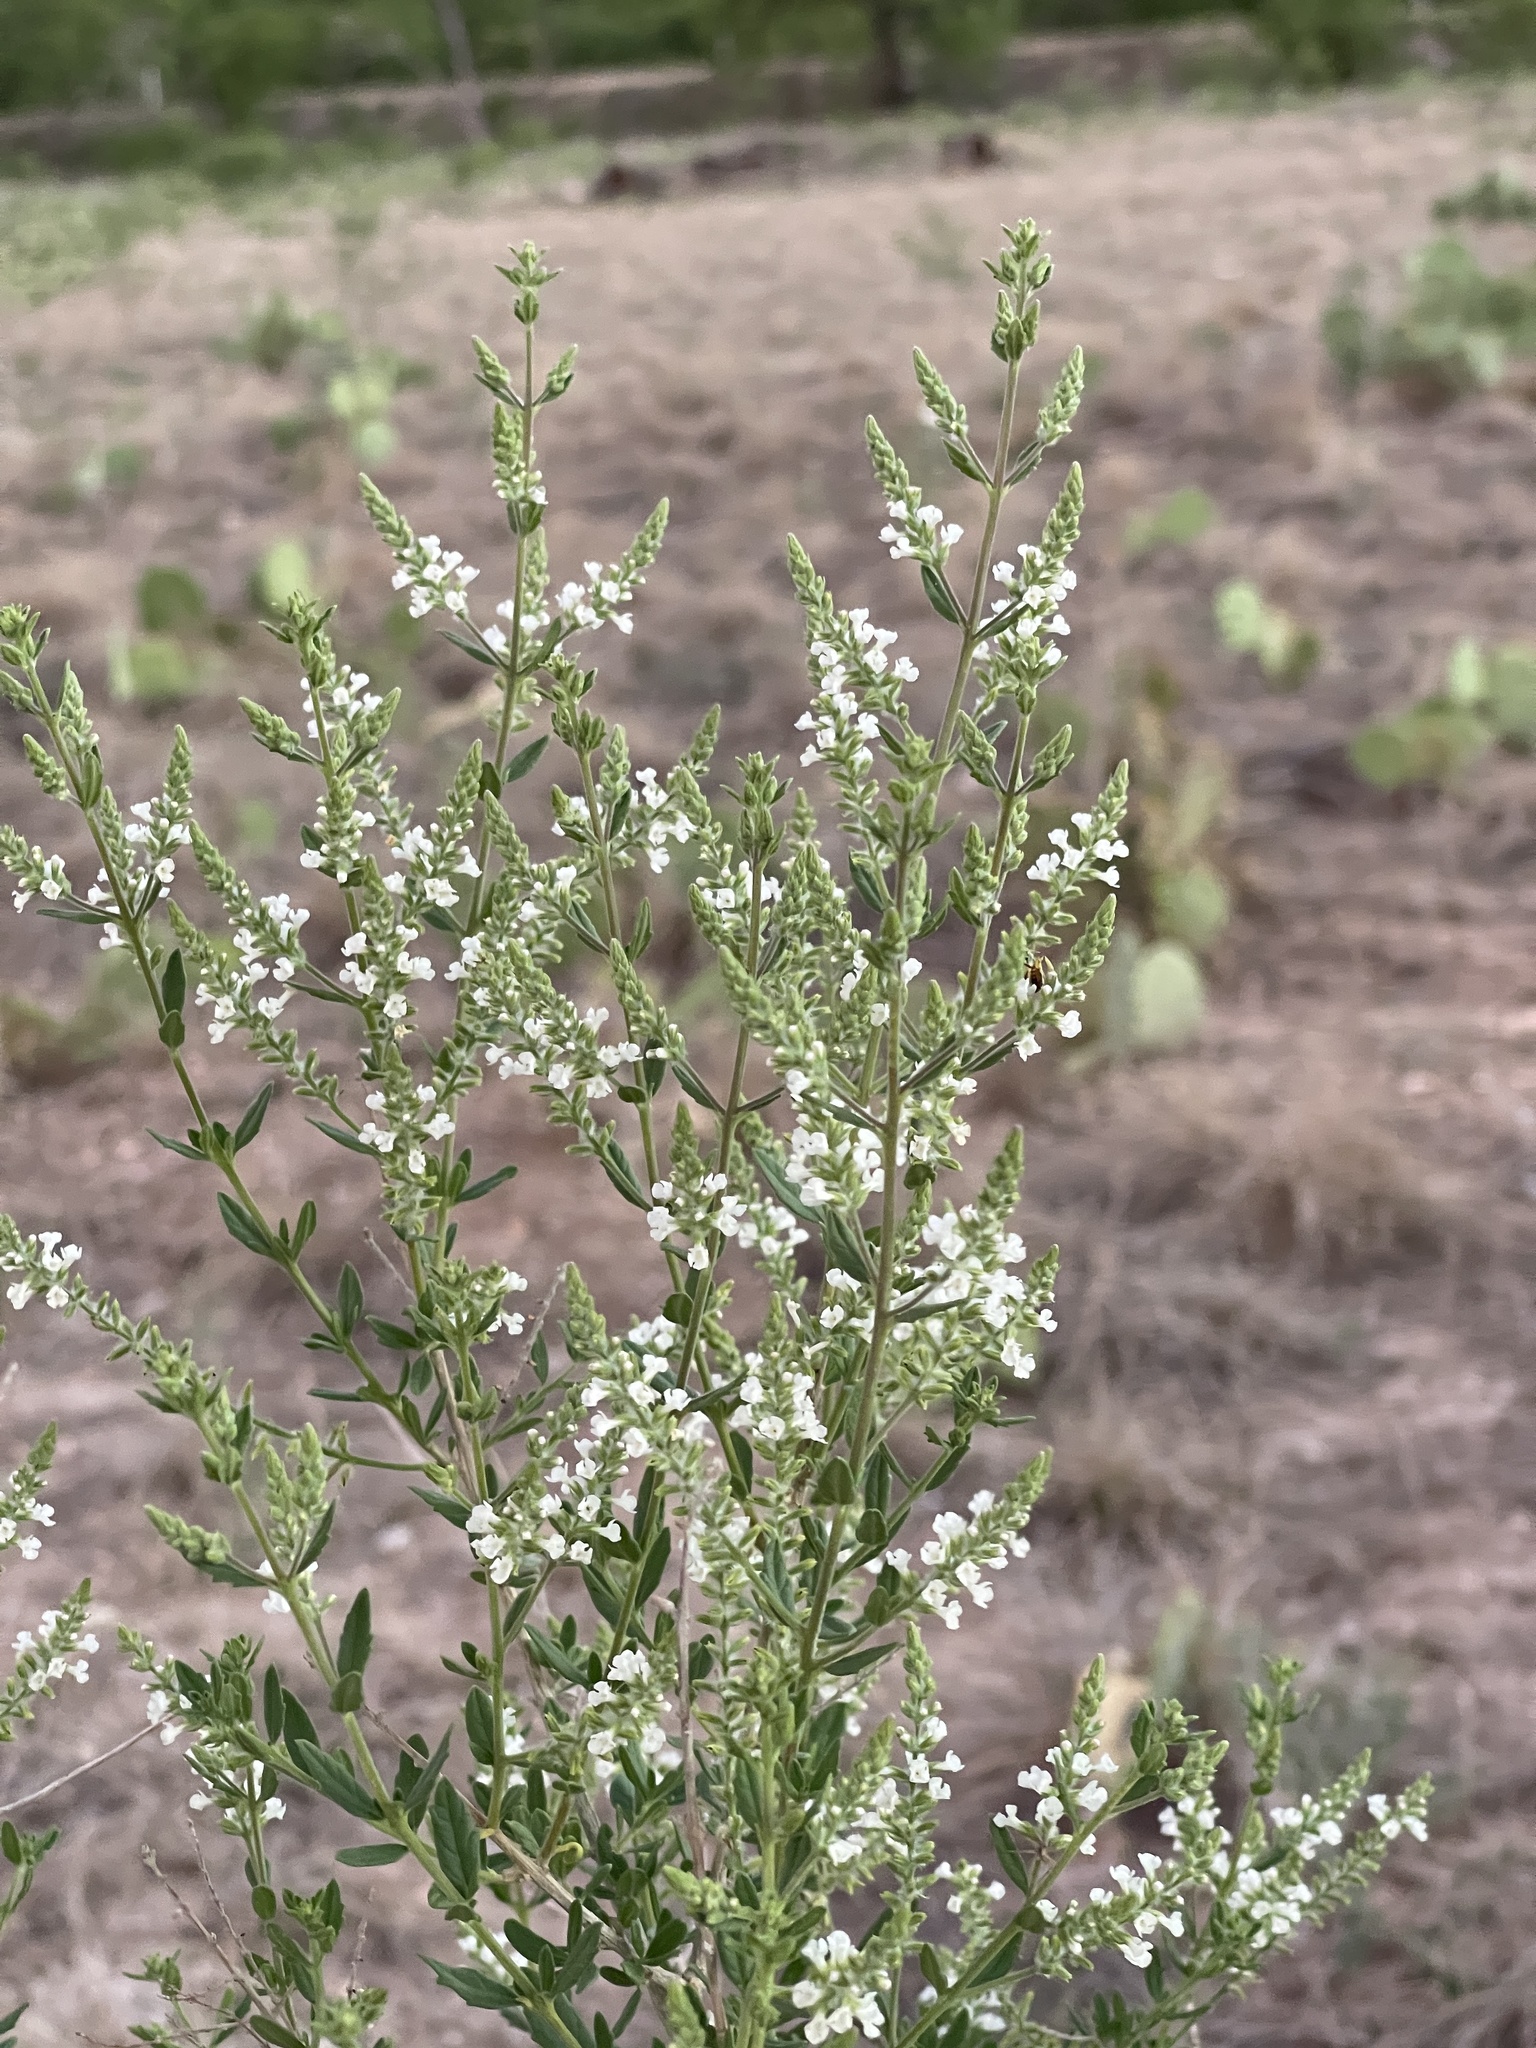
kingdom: Plantae
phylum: Tracheophyta
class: Magnoliopsida
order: Lamiales
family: Verbenaceae
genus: Aloysia
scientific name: Aloysia gratissima
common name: Common bee-brush
